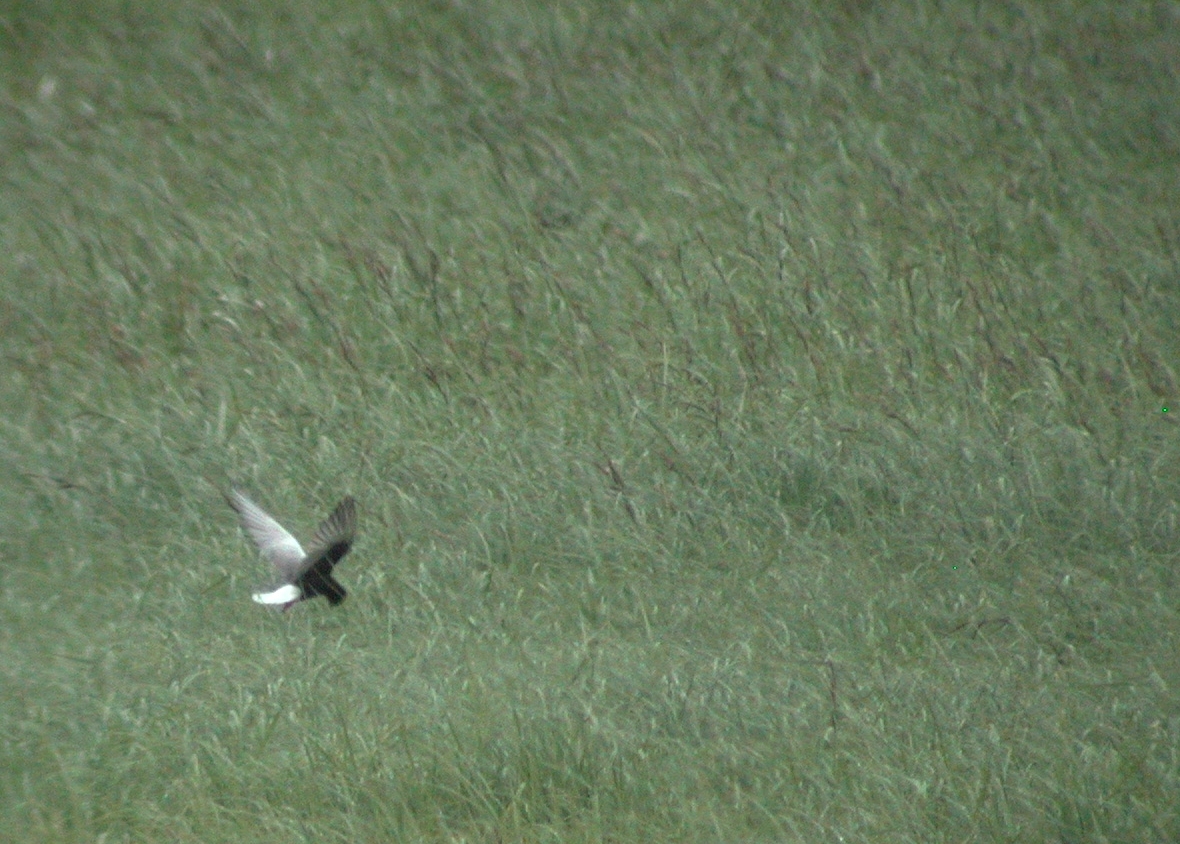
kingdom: Animalia
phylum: Chordata
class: Aves
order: Charadriiformes
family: Laridae
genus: Chlidonias
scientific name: Chlidonias leucopterus
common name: White-winged tern
